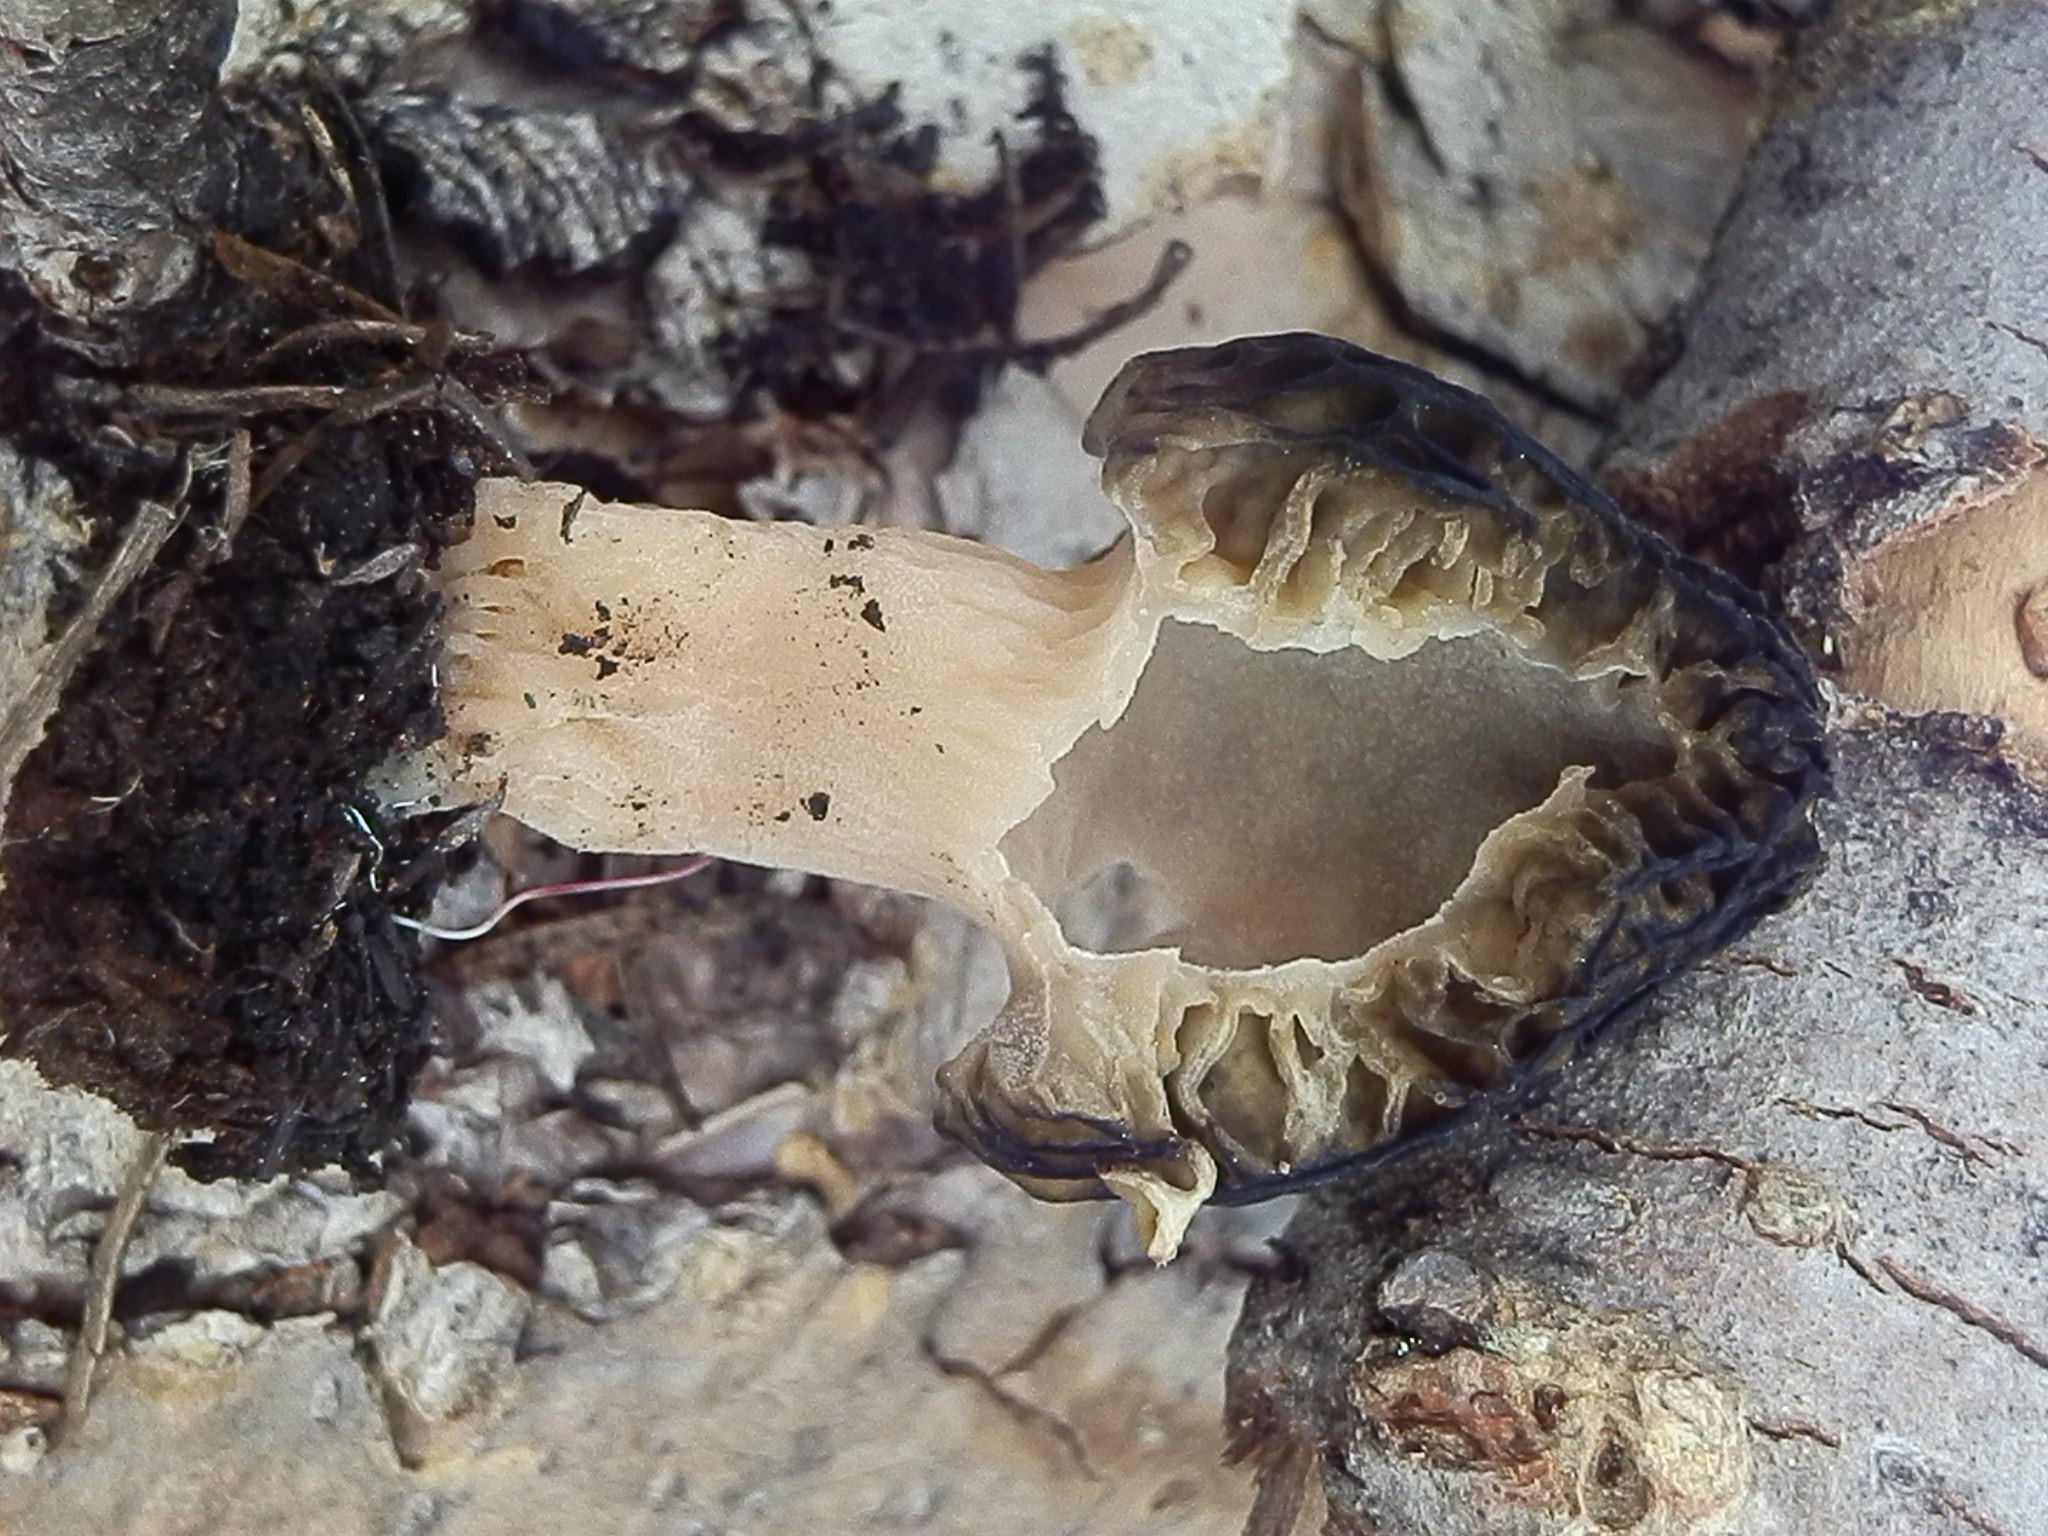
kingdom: Fungi
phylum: Ascomycota
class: Pezizomycetes
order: Pezizales
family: Morchellaceae
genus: Morchella
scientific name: Morchella brunnea
